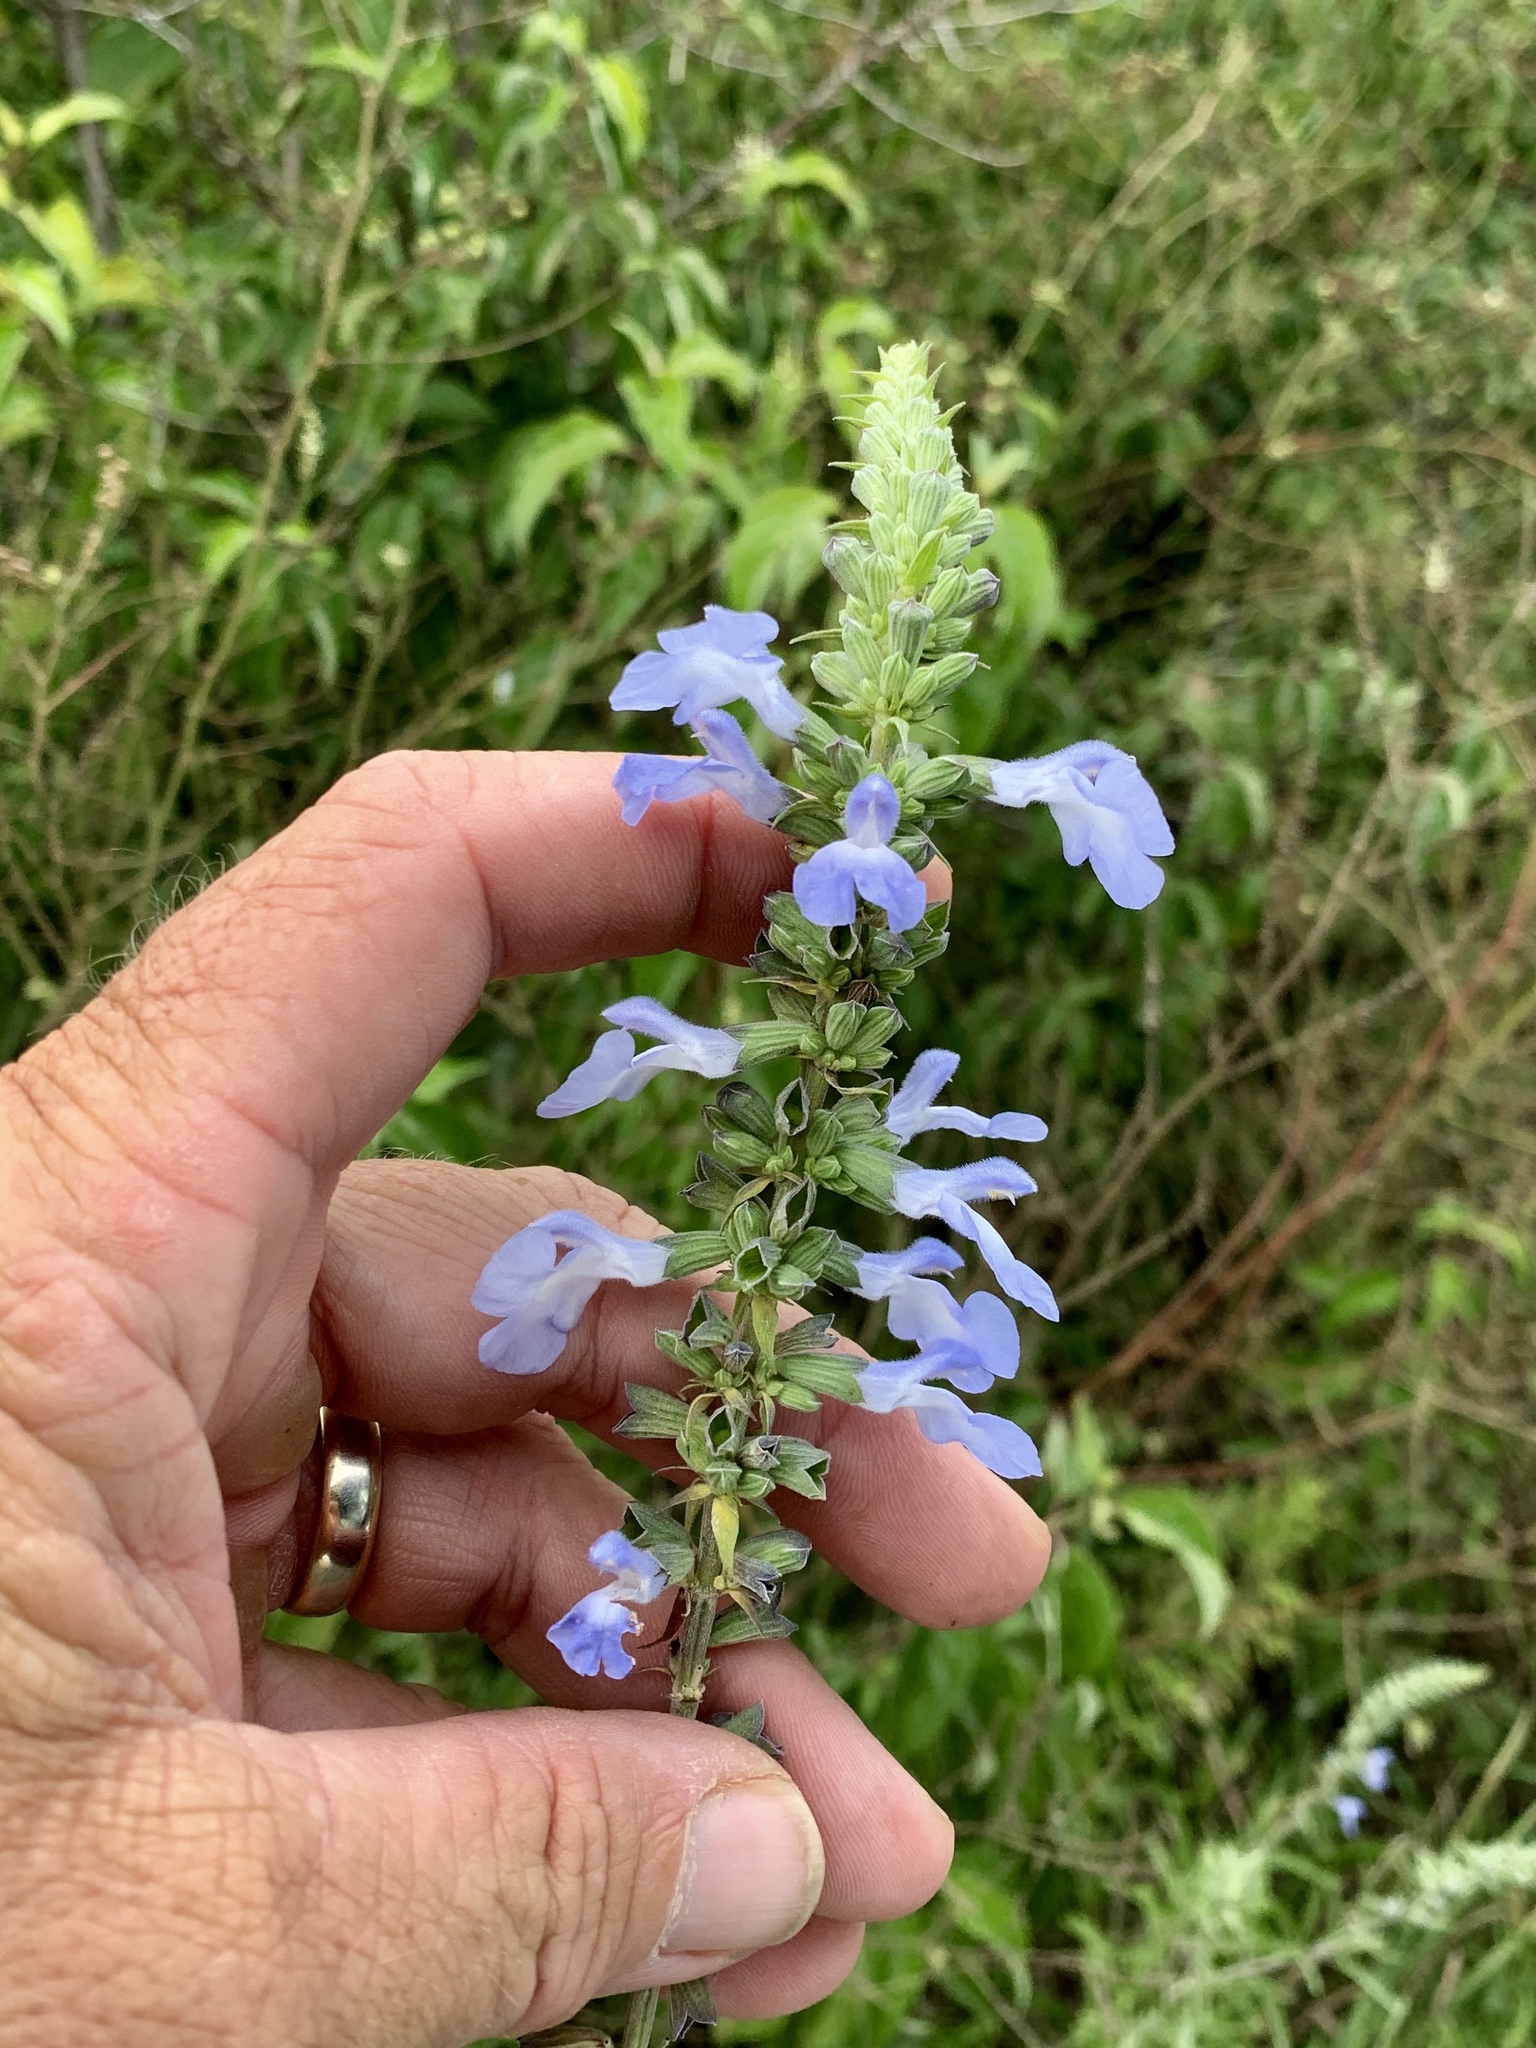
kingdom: Plantae
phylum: Tracheophyta
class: Magnoliopsida
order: Lamiales
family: Lamiaceae
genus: Salvia
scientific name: Salvia azurea
